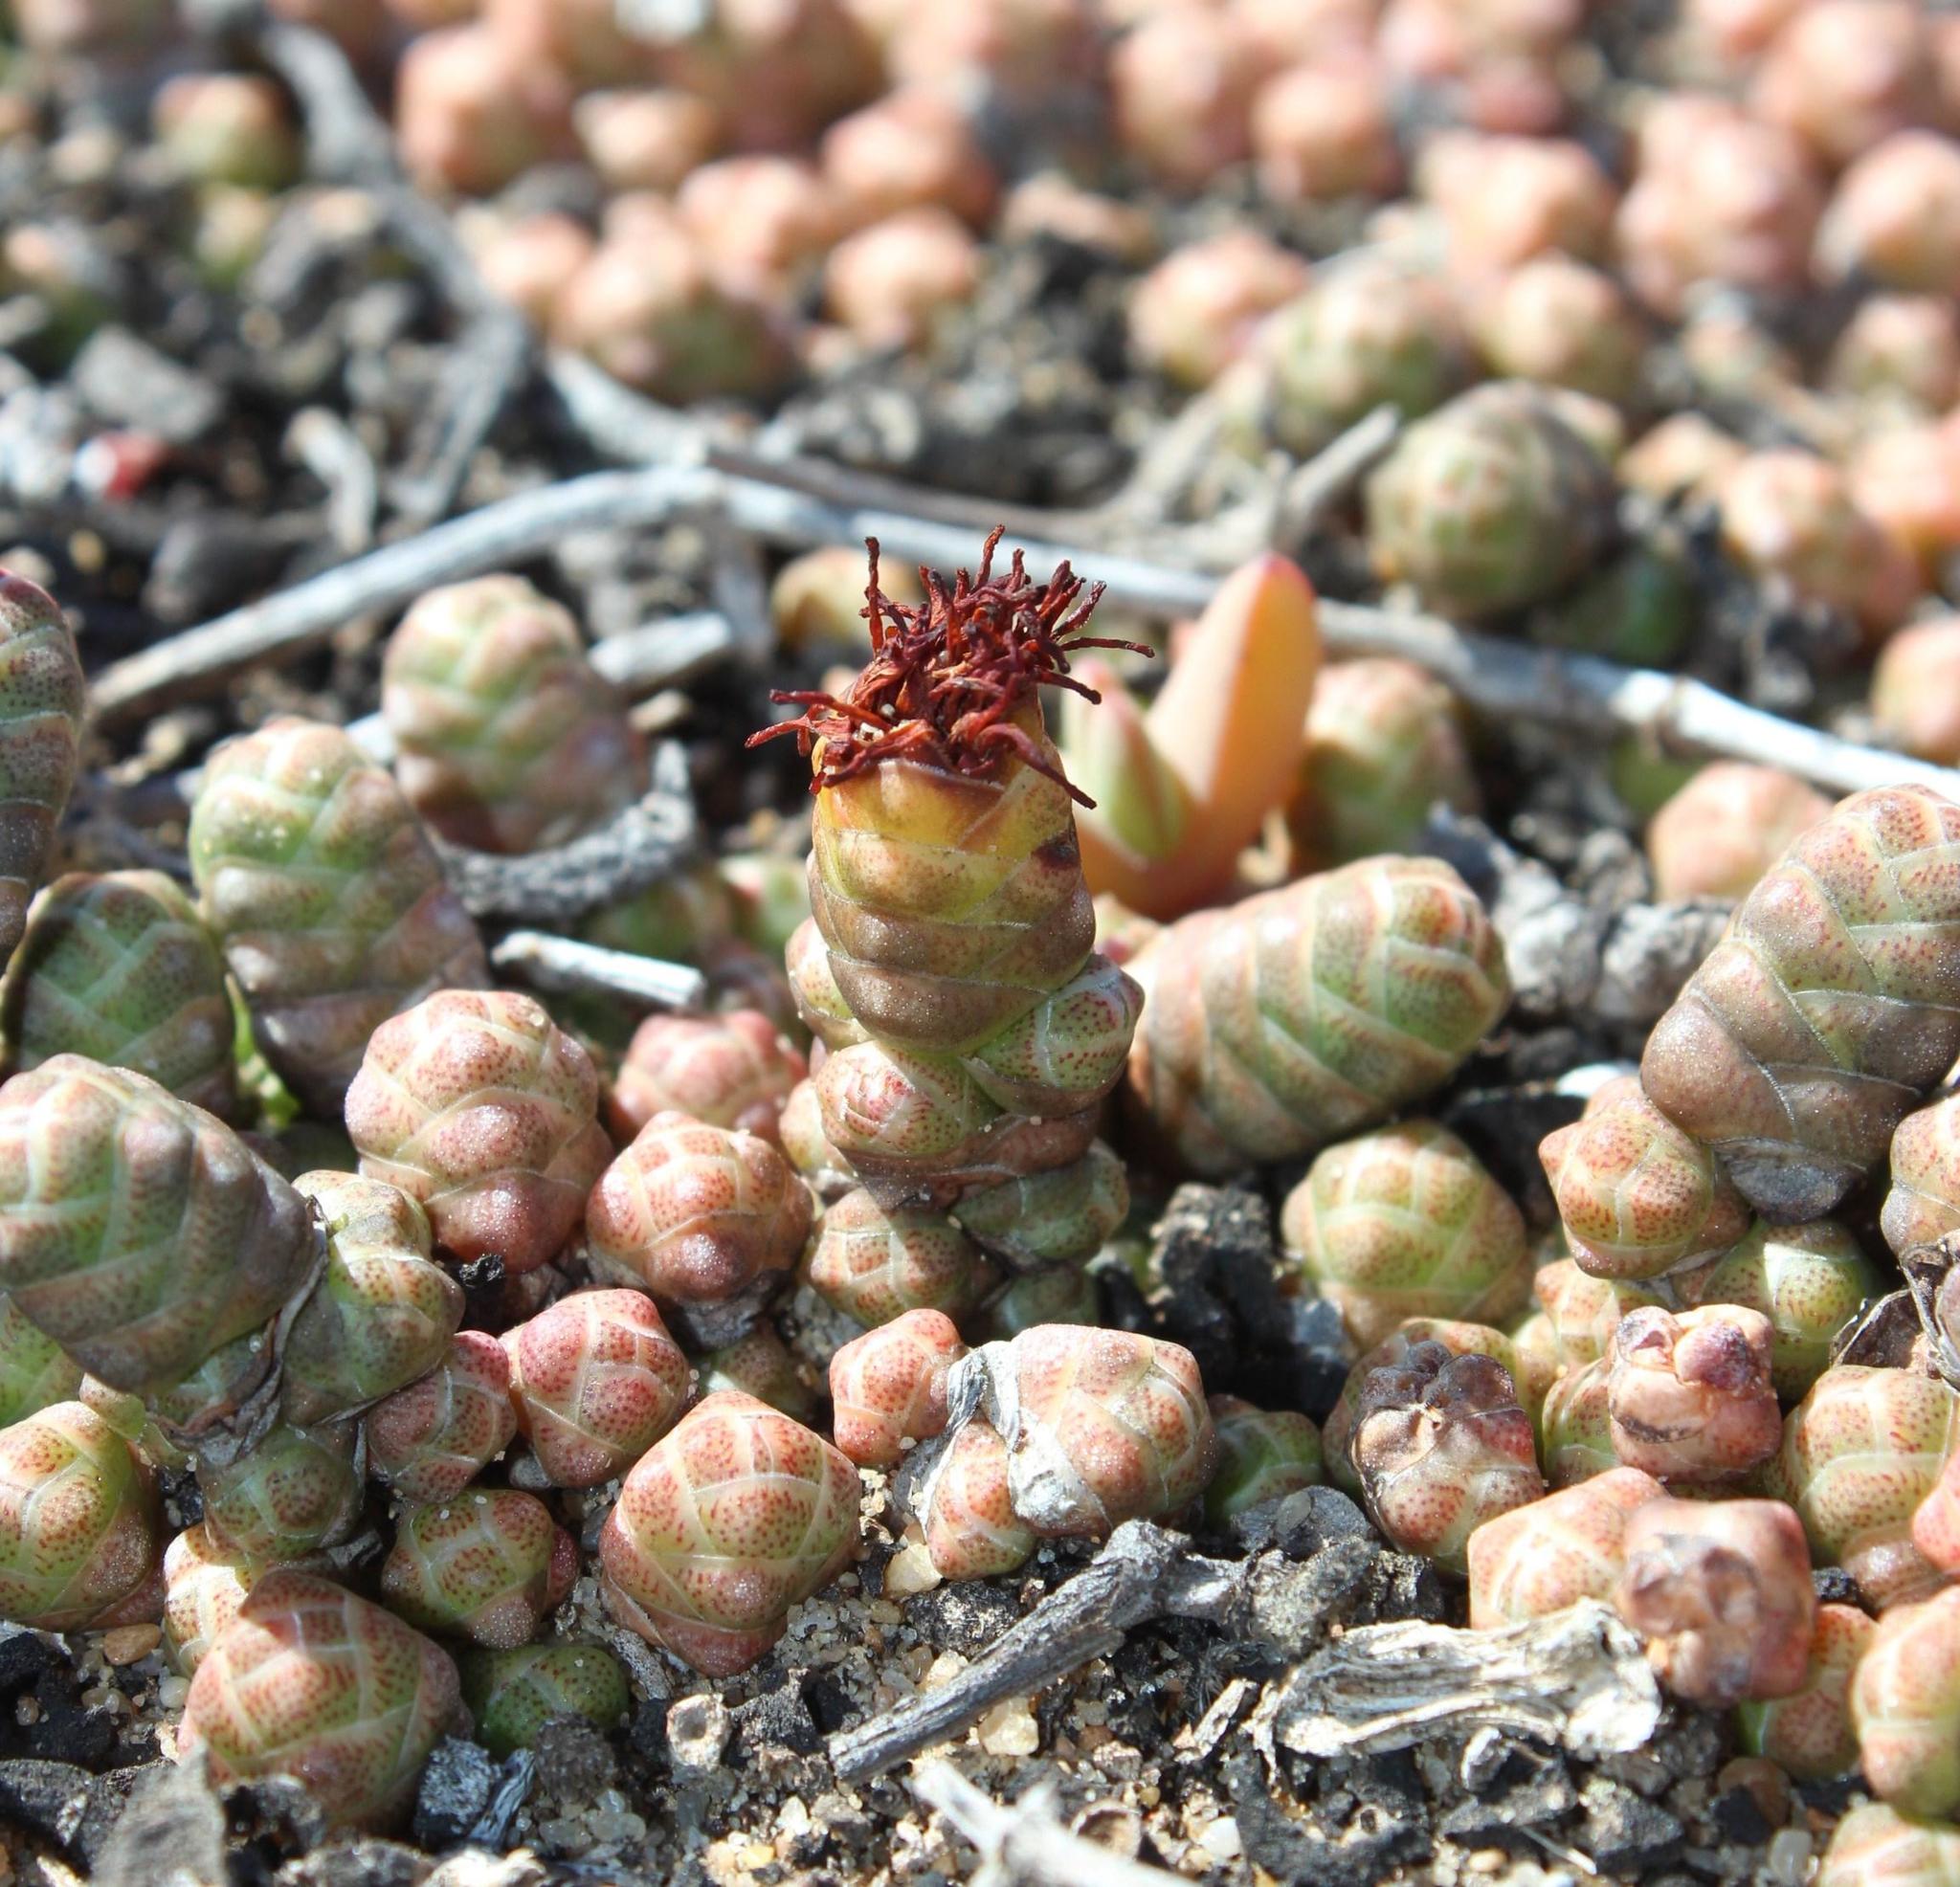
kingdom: Plantae
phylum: Tracheophyta
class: Magnoliopsida
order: Saxifragales
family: Crassulaceae
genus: Crassula
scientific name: Crassula barklyi
